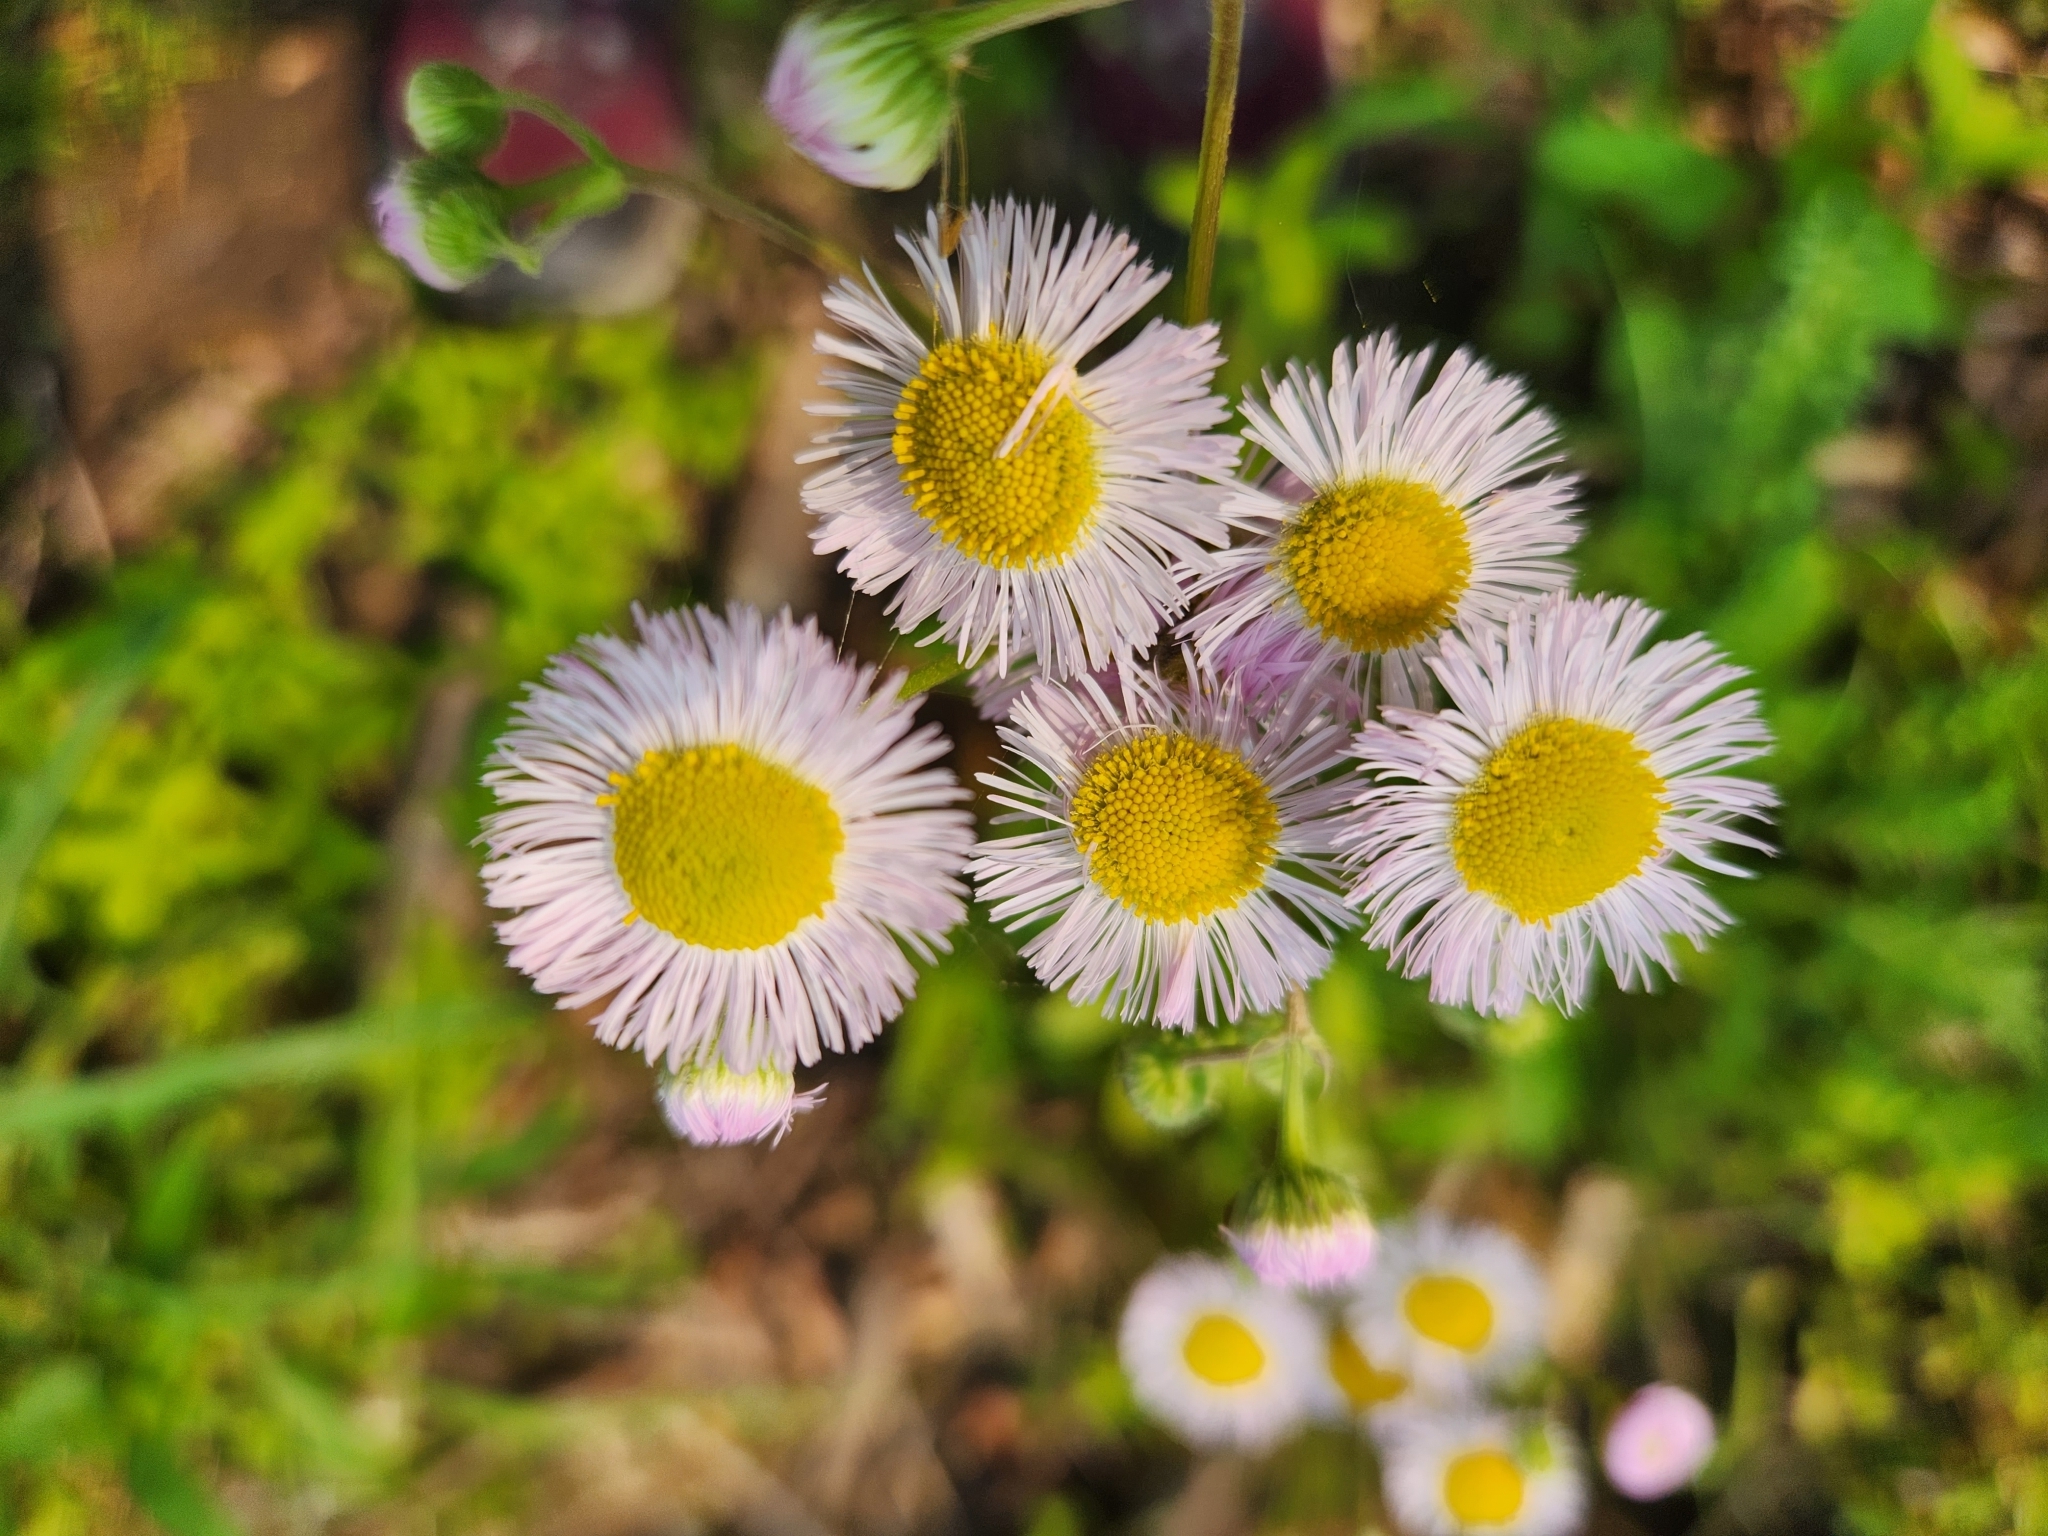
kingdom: Plantae
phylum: Tracheophyta
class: Magnoliopsida
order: Asterales
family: Asteraceae
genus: Erigeron
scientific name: Erigeron philadelphicus
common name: Robin's-plantain
